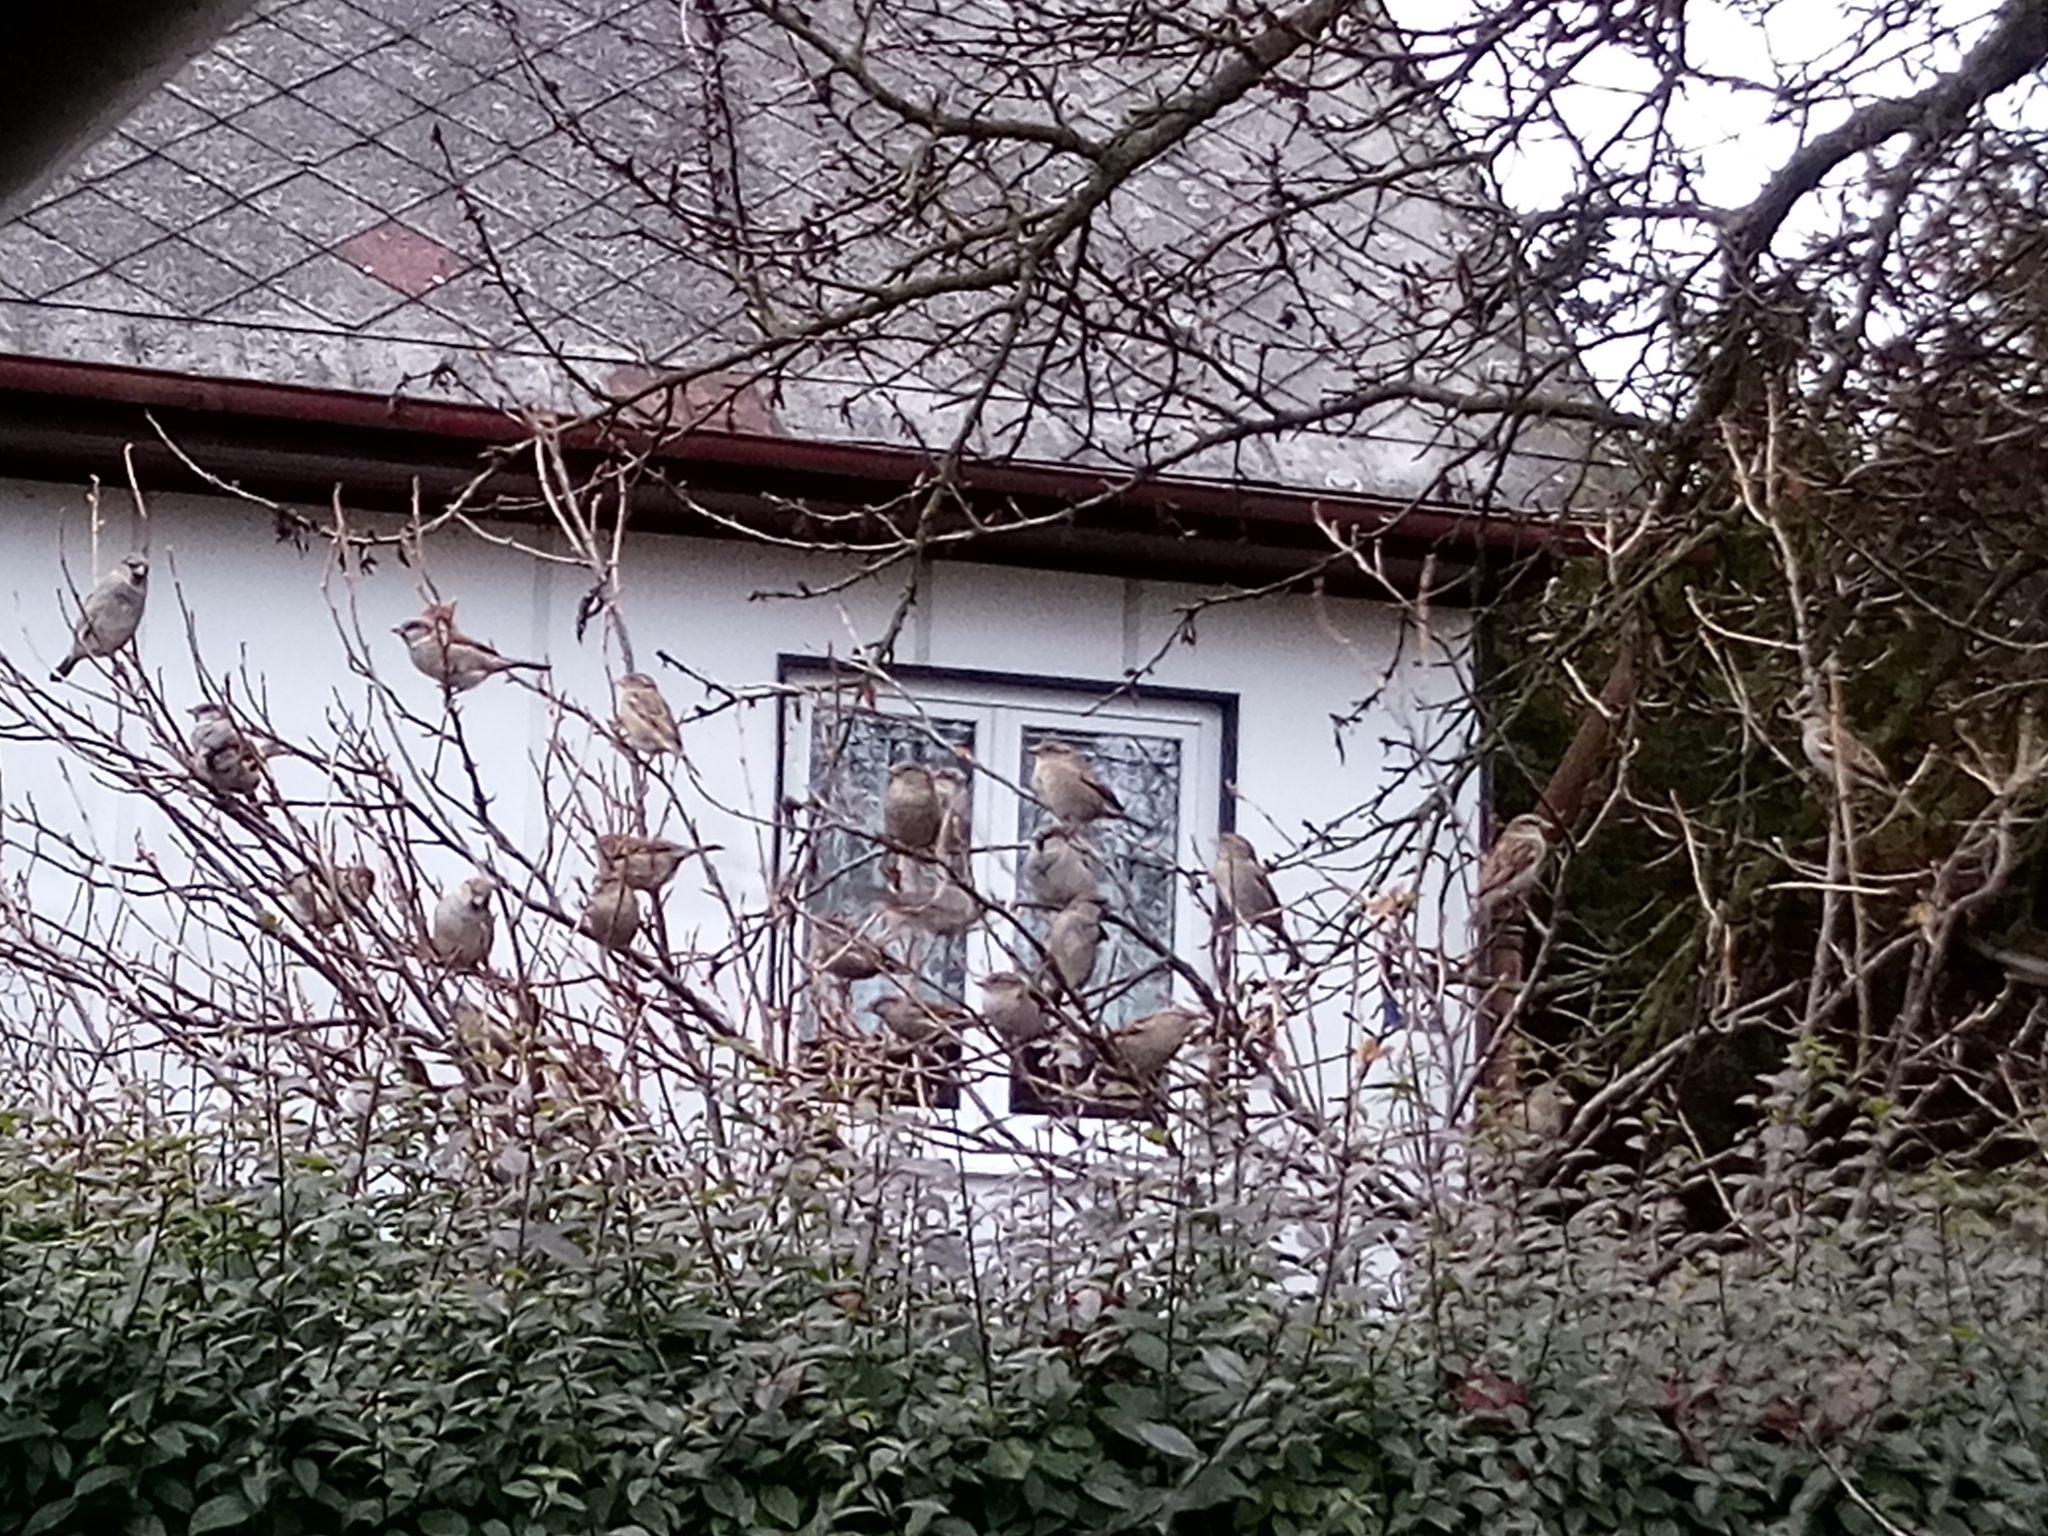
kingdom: Animalia
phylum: Chordata
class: Aves
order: Passeriformes
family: Passeridae
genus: Passer
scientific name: Passer domesticus
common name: House sparrow
